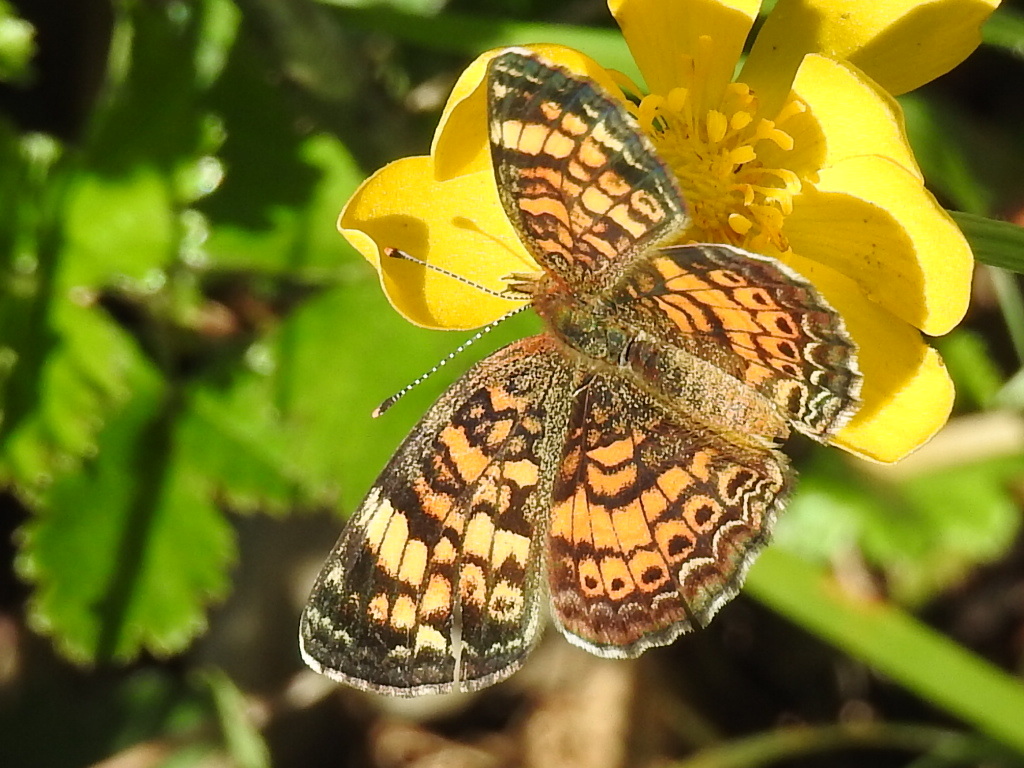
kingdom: Animalia
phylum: Arthropoda
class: Insecta
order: Lepidoptera
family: Nymphalidae
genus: Phyciodes
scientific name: Phyciodes tharos
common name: Pearl crescent
